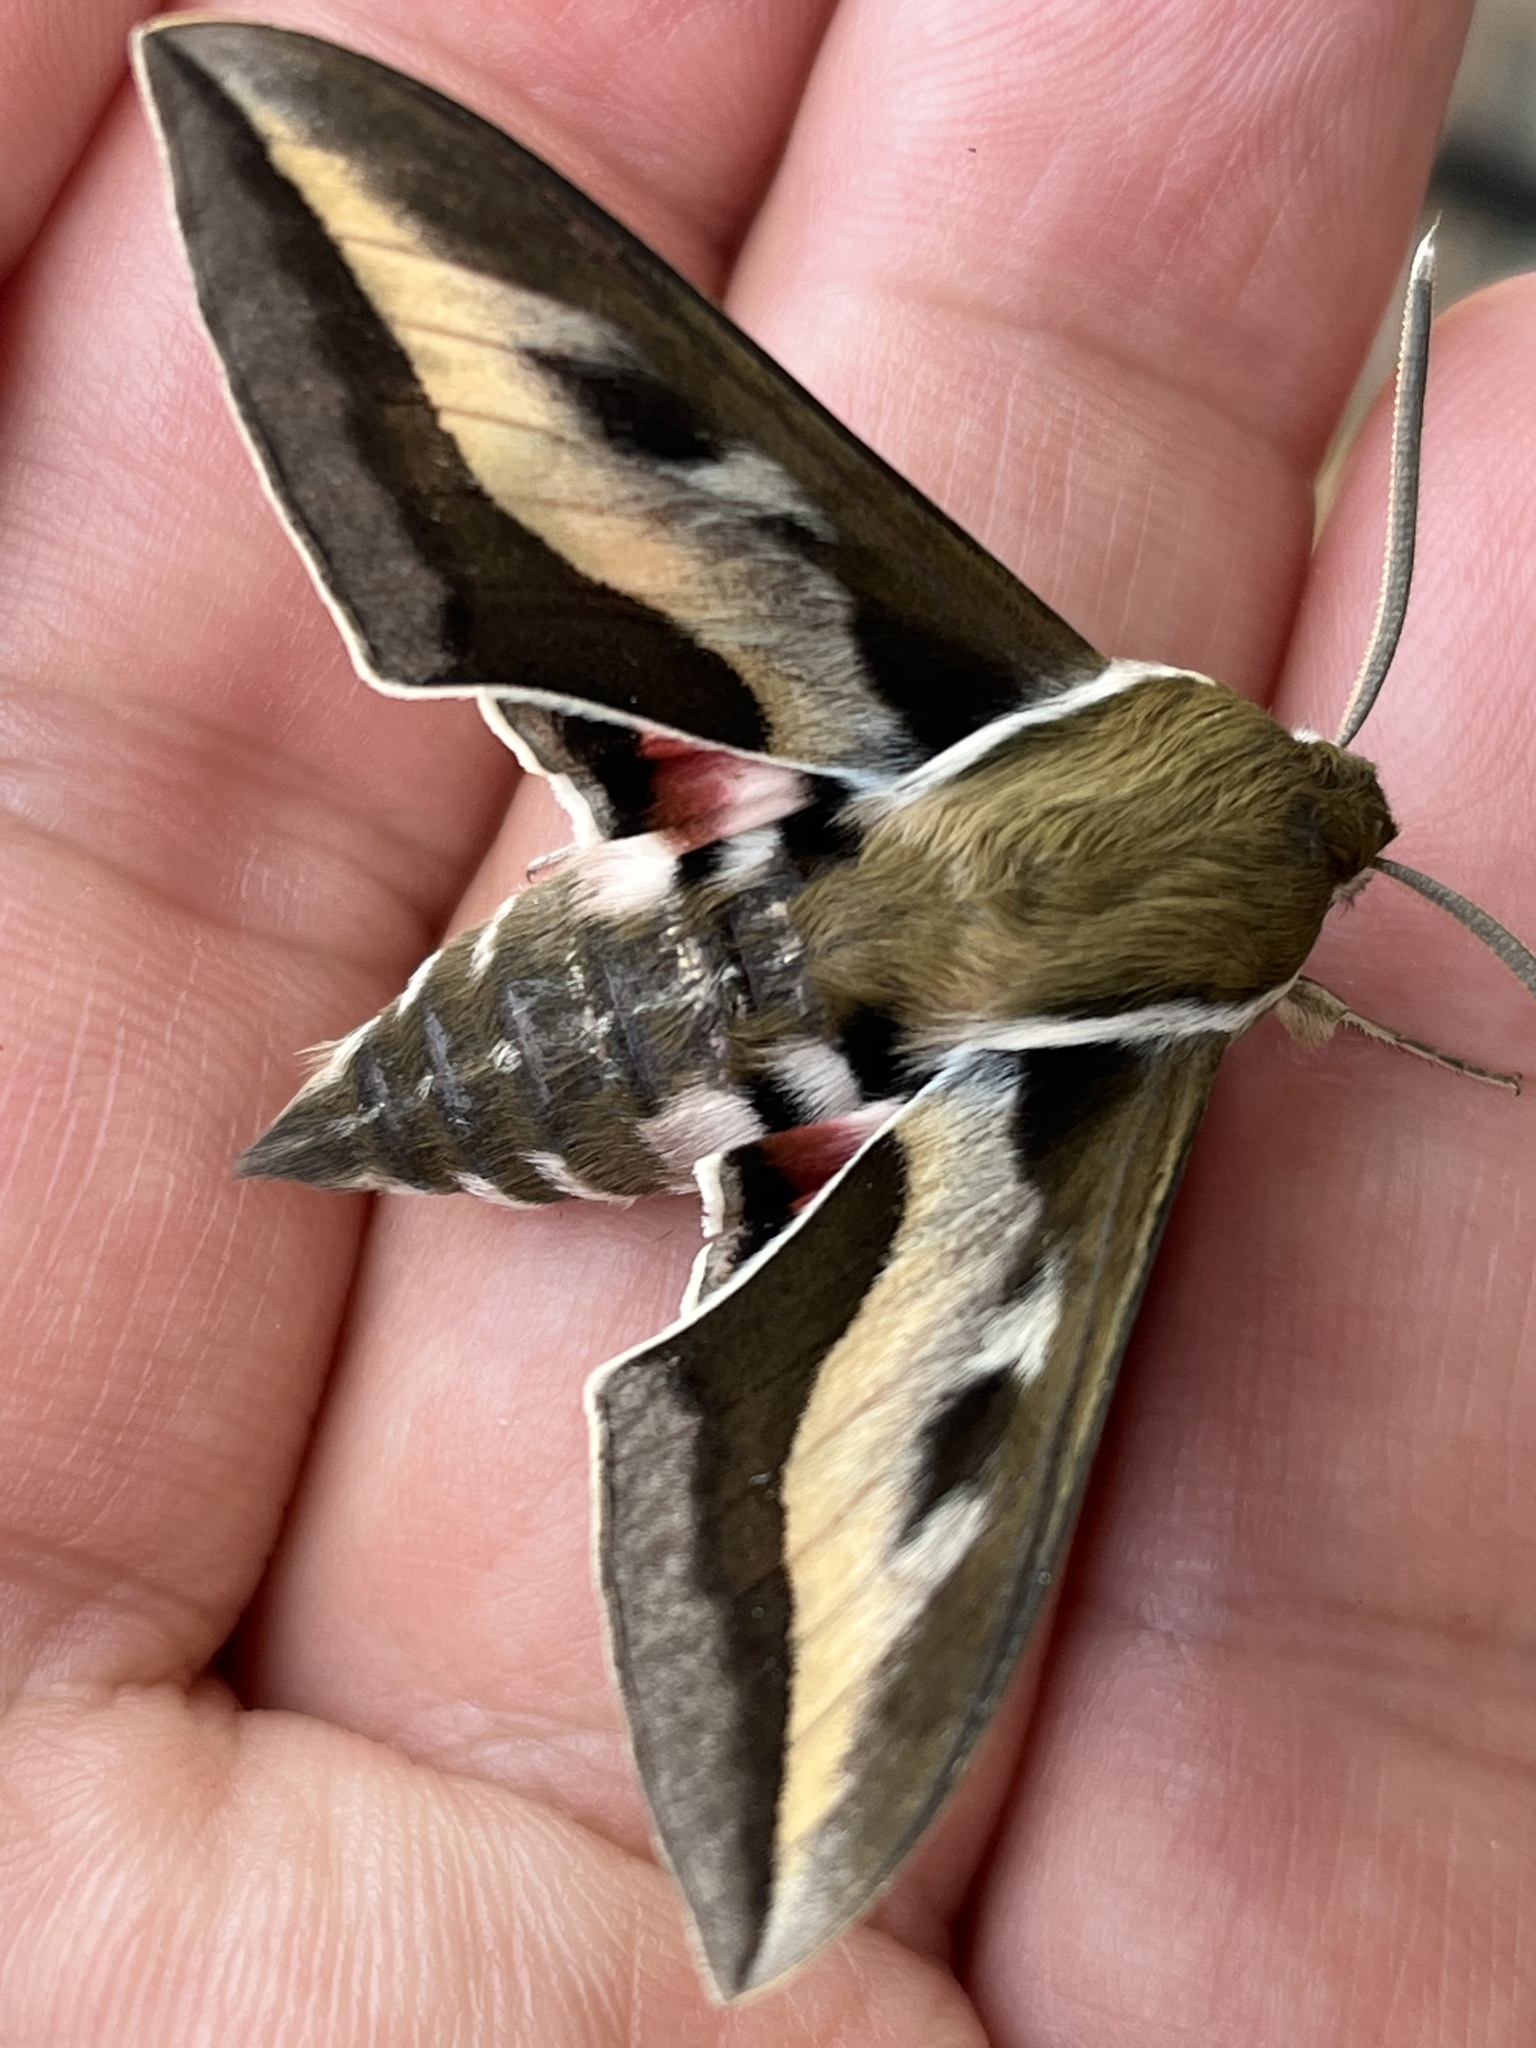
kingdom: Animalia
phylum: Arthropoda
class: Insecta
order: Lepidoptera
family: Sphingidae
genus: Hyles
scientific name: Hyles gallii
